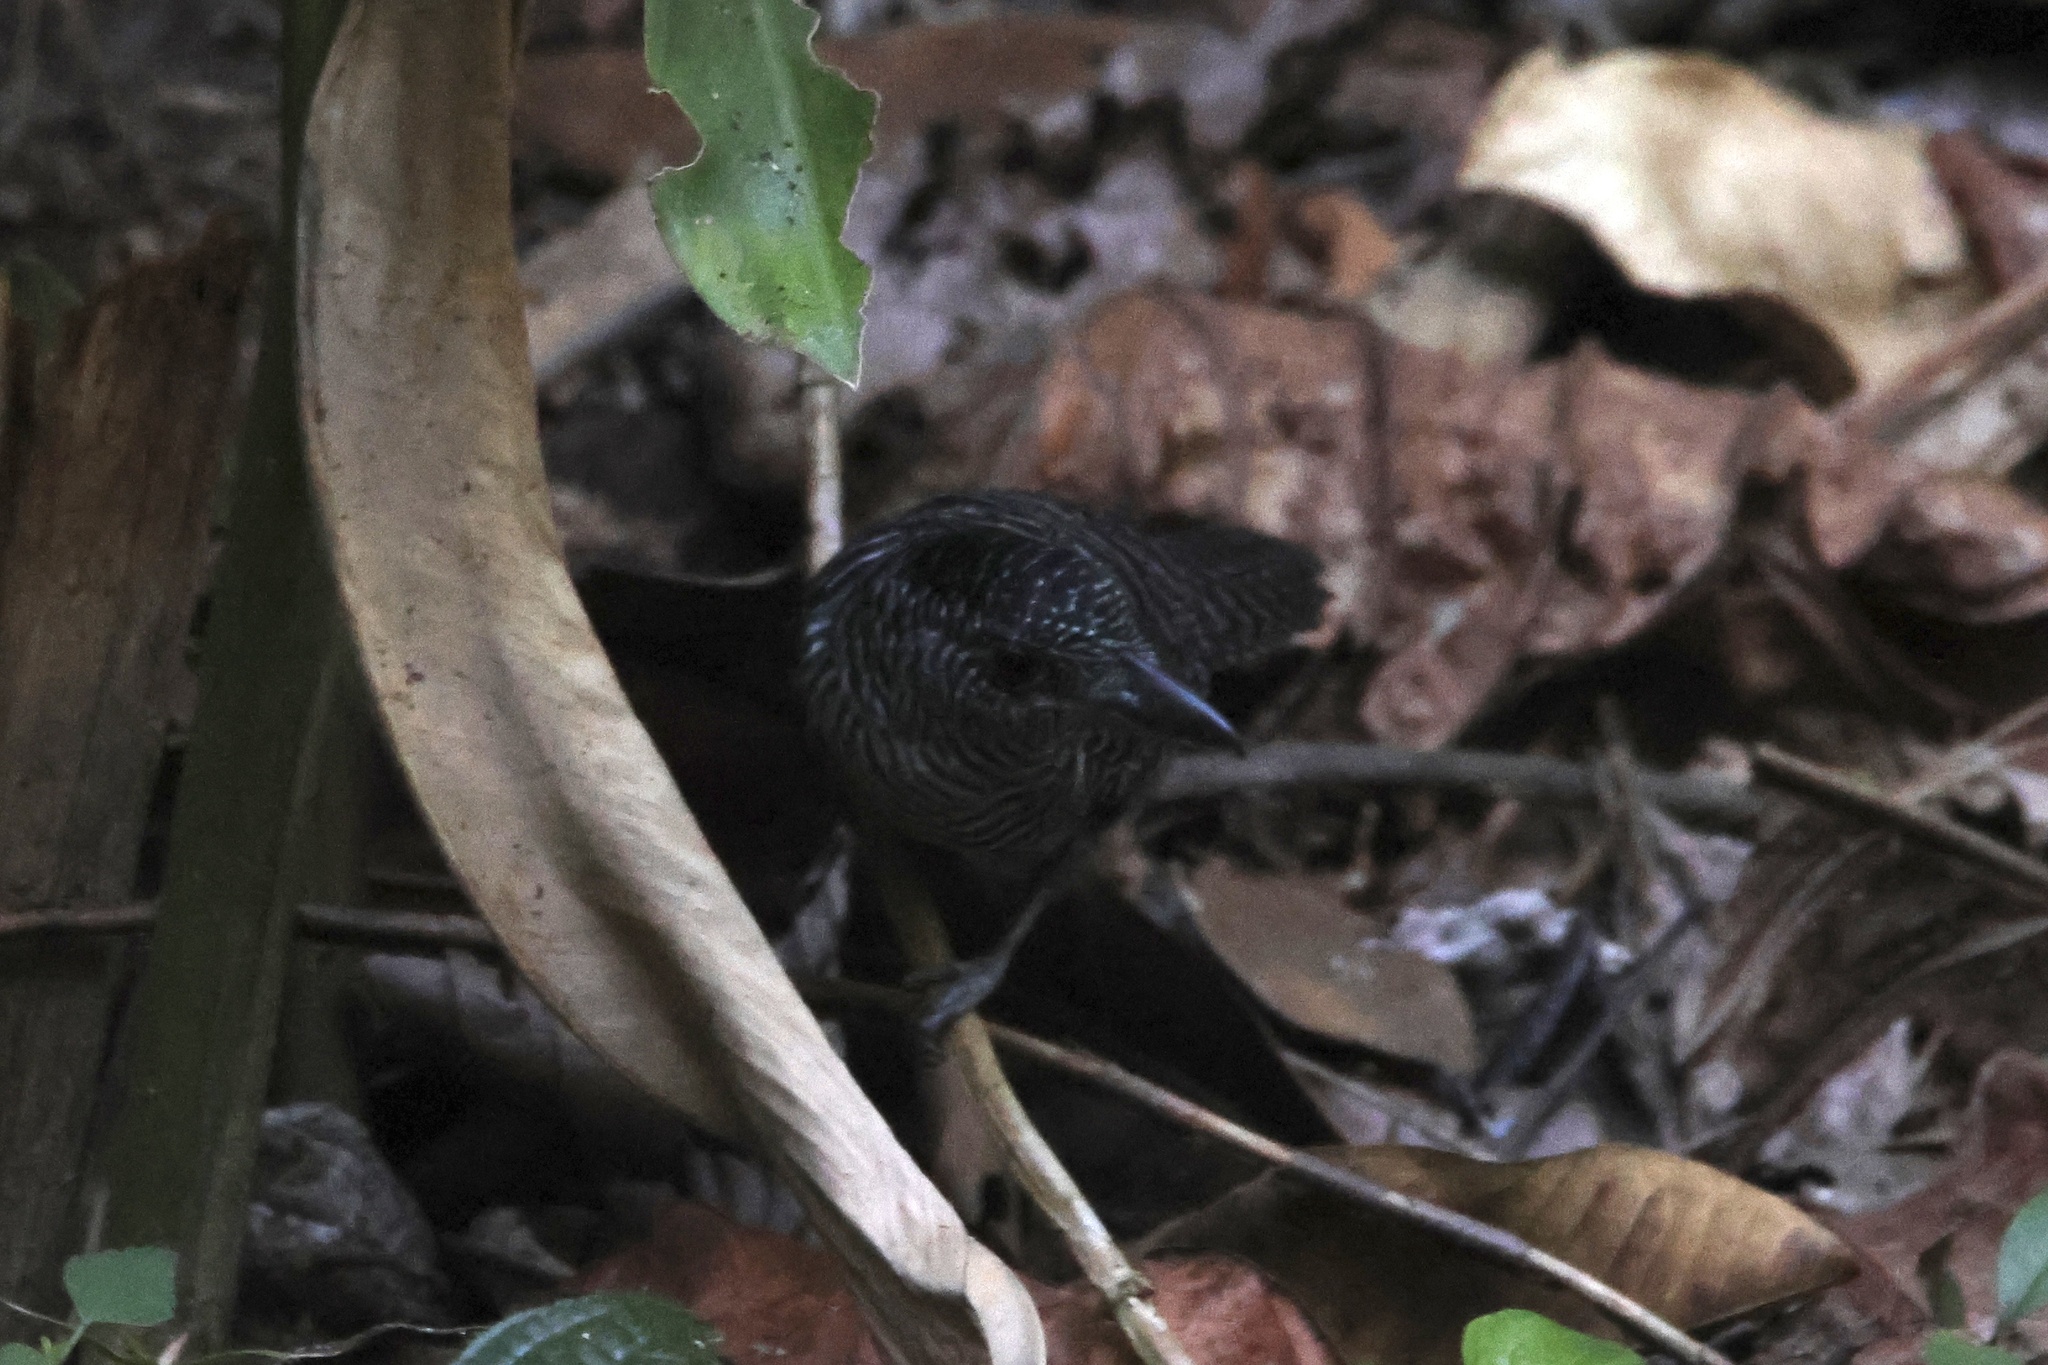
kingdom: Animalia
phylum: Chordata
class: Aves
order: Passeriformes
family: Thamnophilidae
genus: Cymbilaimus
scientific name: Cymbilaimus lineatus
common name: Fasciated antshrike
